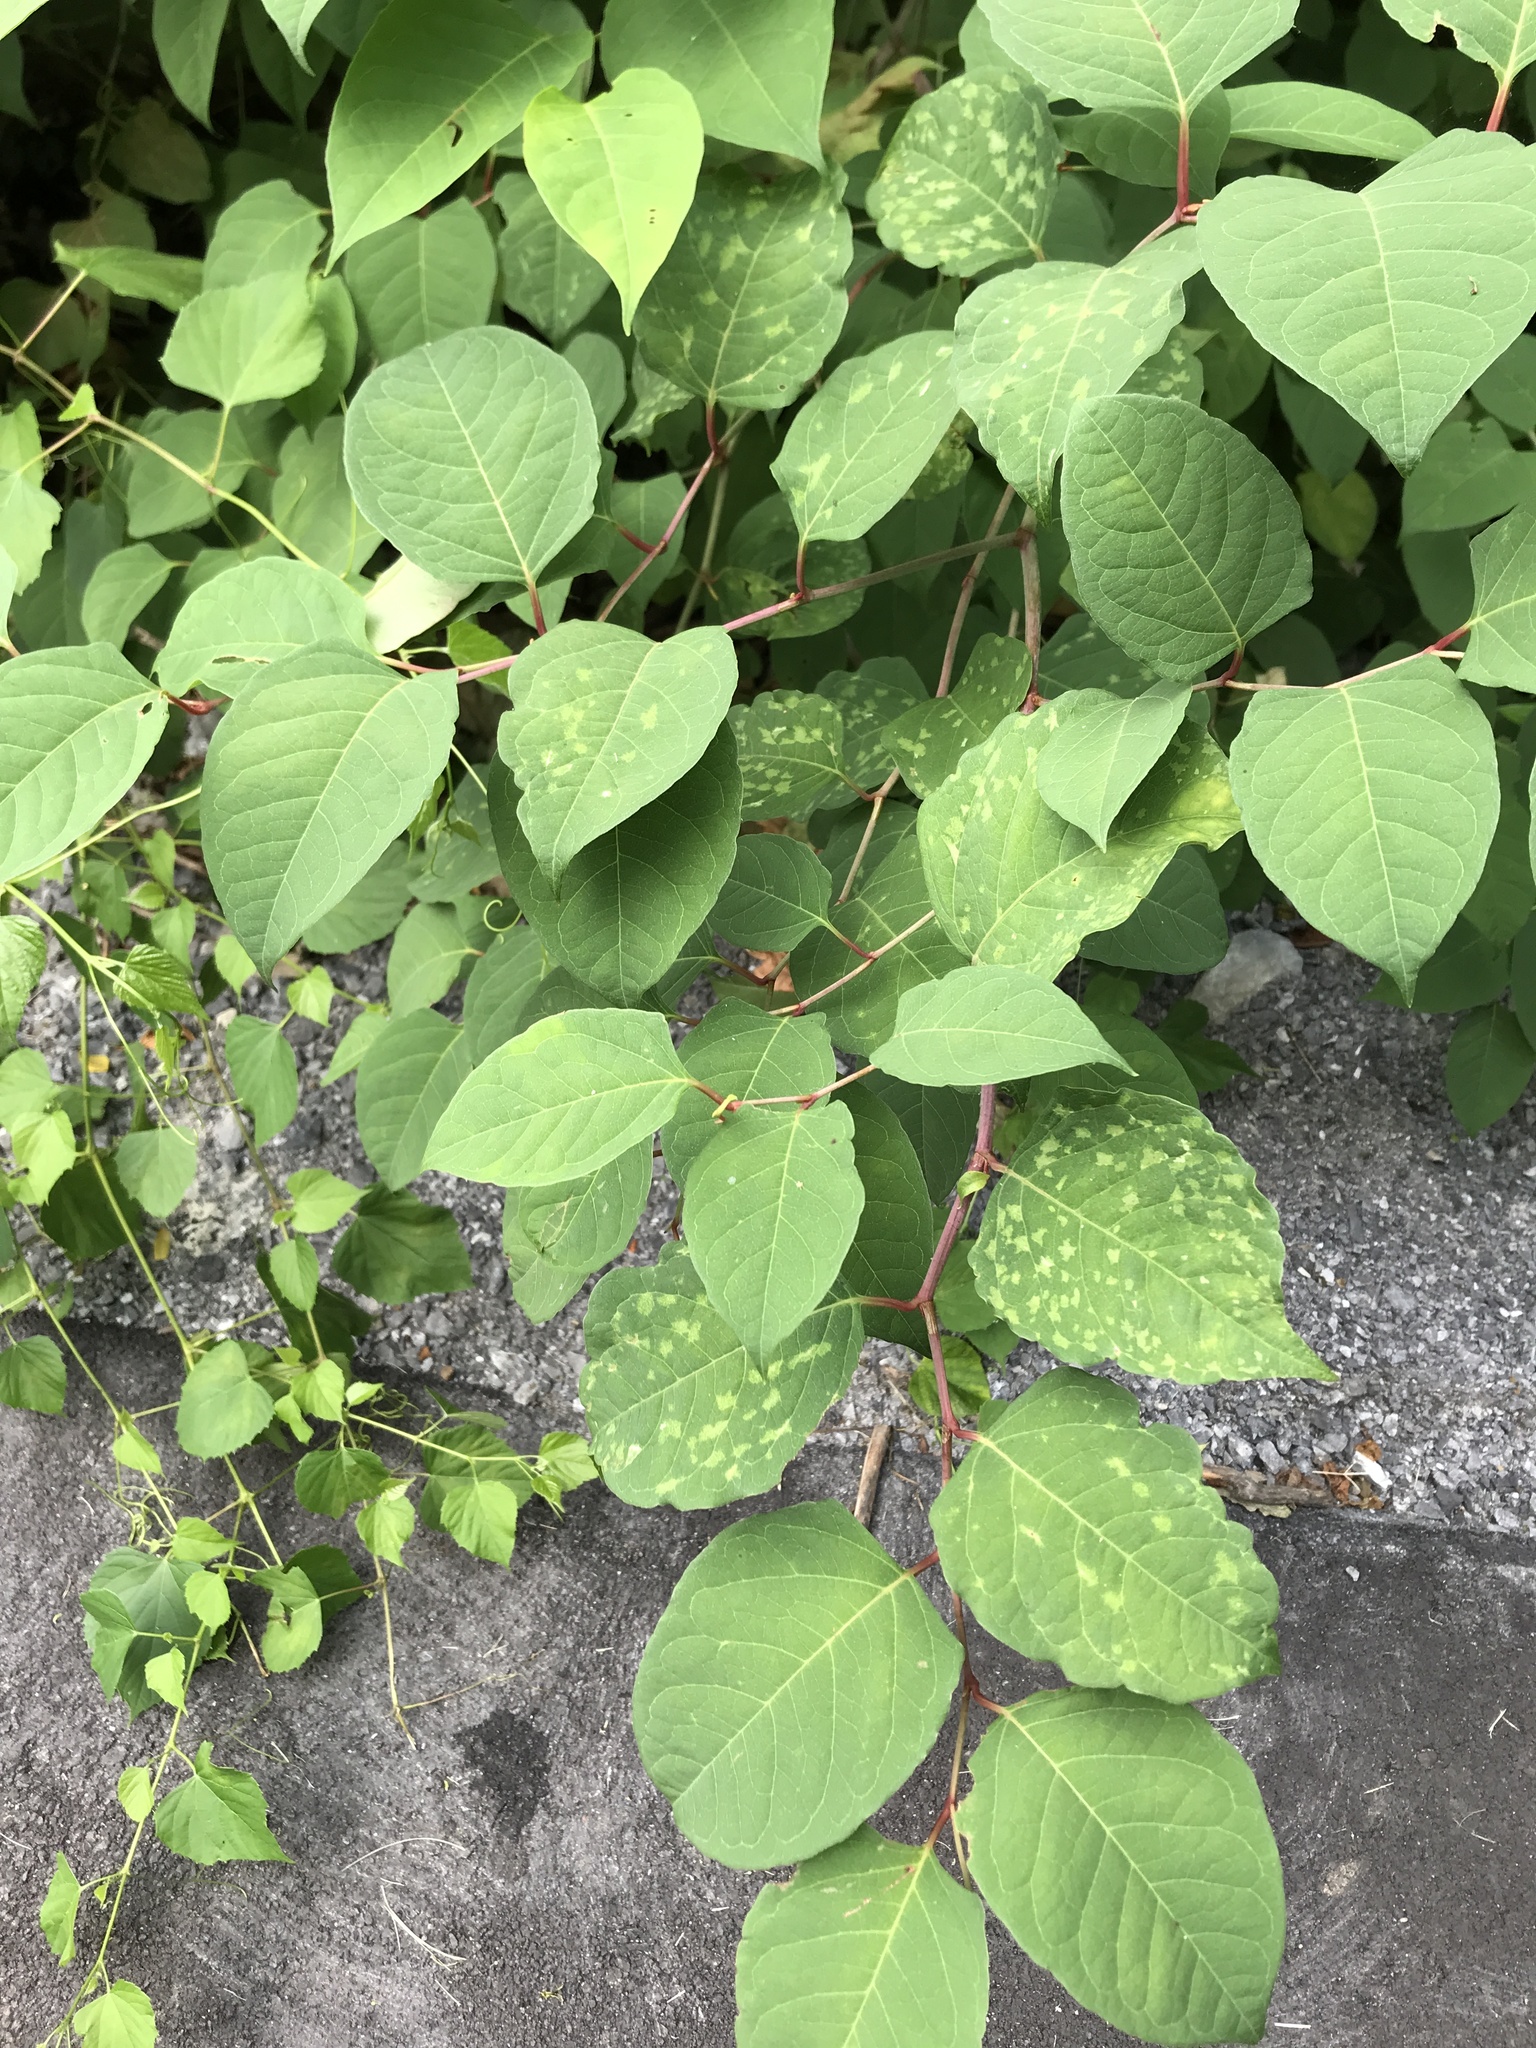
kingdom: Plantae
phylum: Tracheophyta
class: Magnoliopsida
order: Caryophyllales
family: Polygonaceae
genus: Reynoutria
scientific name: Reynoutria japonica
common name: Japanese knotweed
